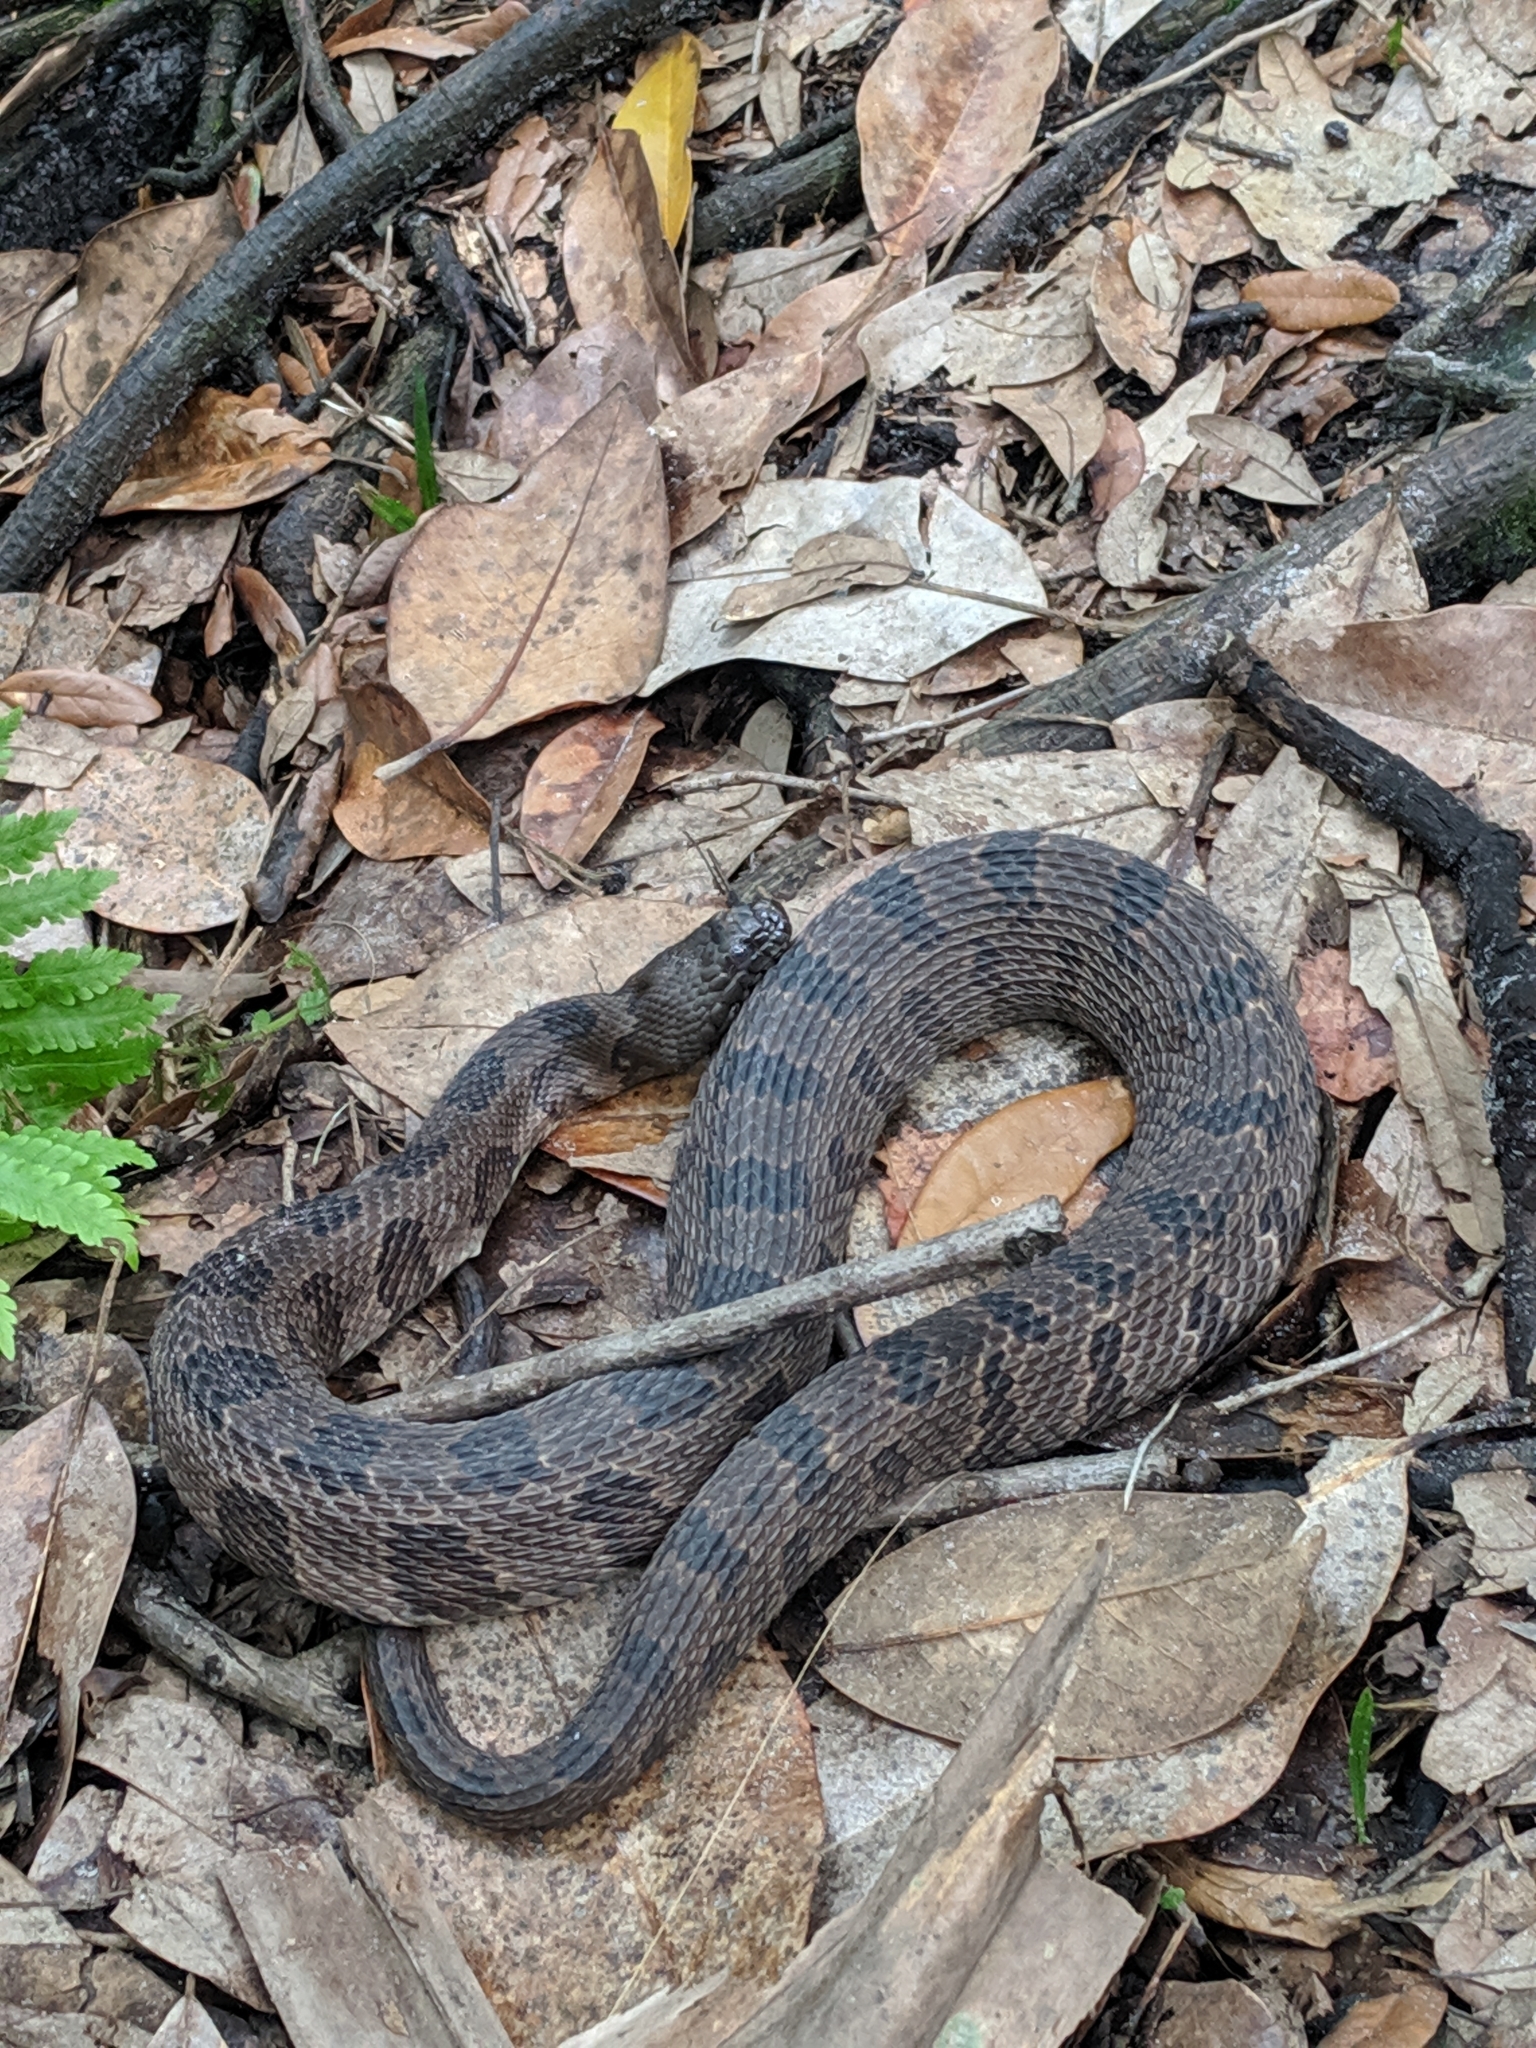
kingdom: Animalia
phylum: Chordata
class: Squamata
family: Colubridae
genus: Nerodia
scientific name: Nerodia taxispilota
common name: Brown water snake
